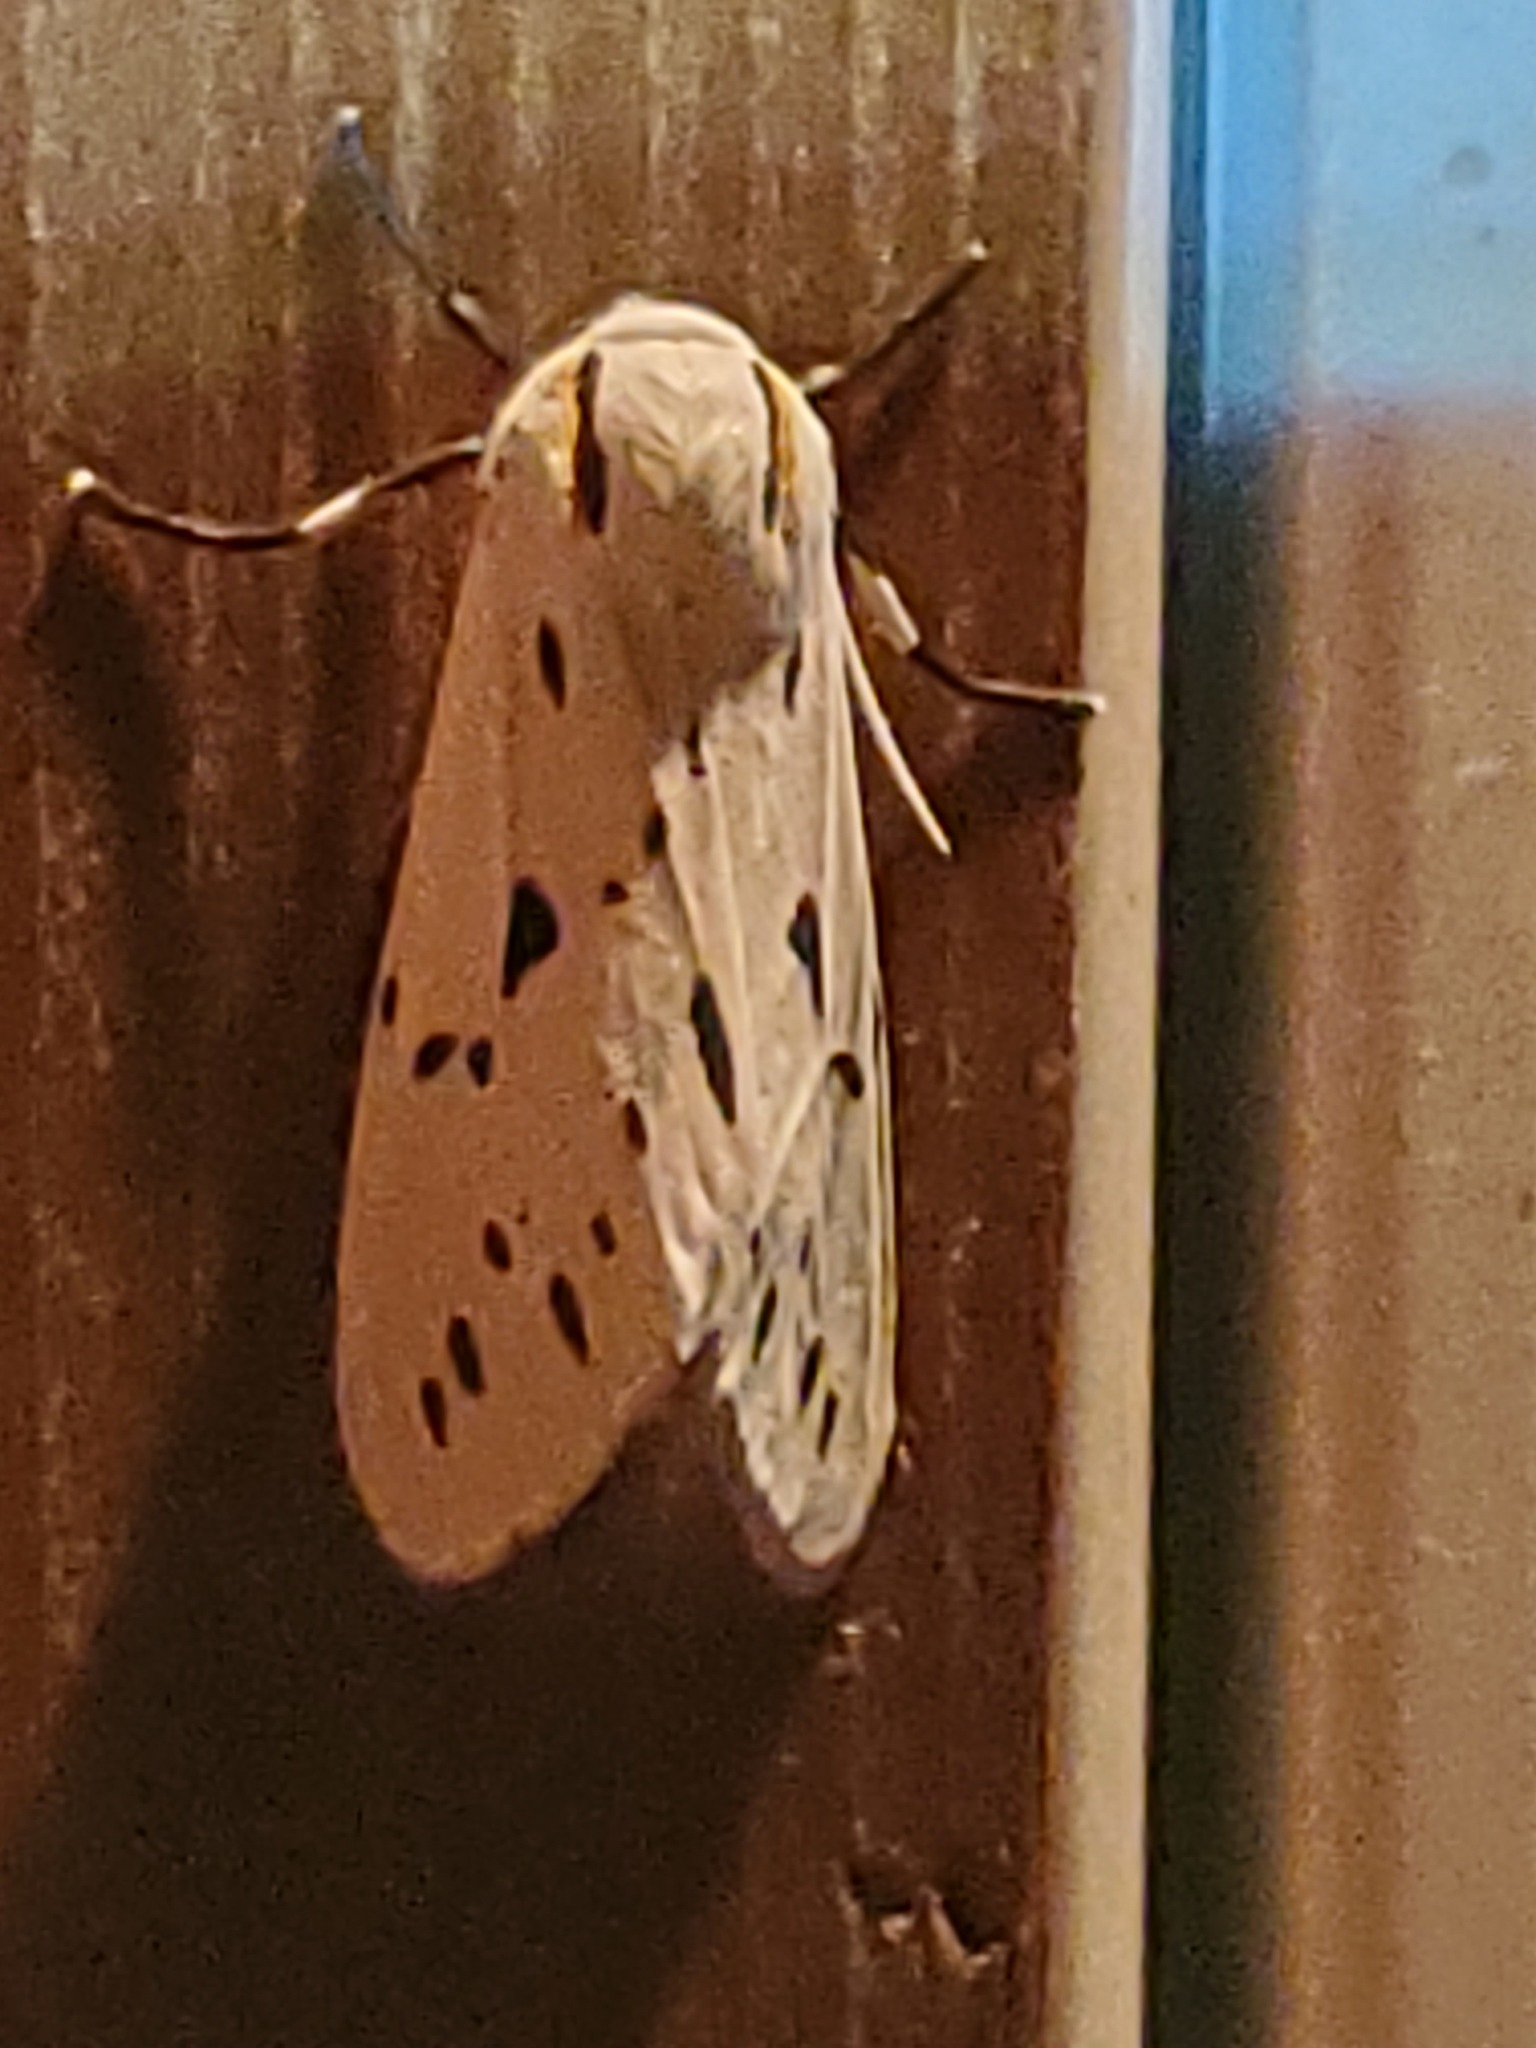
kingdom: Animalia
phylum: Arthropoda
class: Insecta
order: Lepidoptera
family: Erebidae
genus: Ectypia
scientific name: Ectypia bivittata
